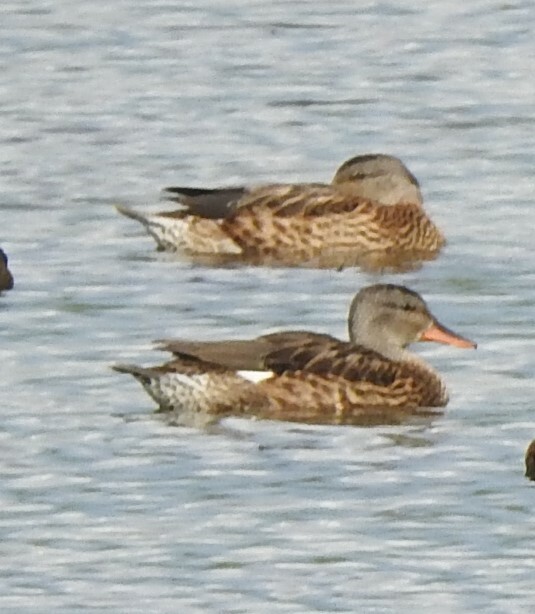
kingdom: Animalia
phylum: Chordata
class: Aves
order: Anseriformes
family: Anatidae
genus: Mareca
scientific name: Mareca strepera
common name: Gadwall
